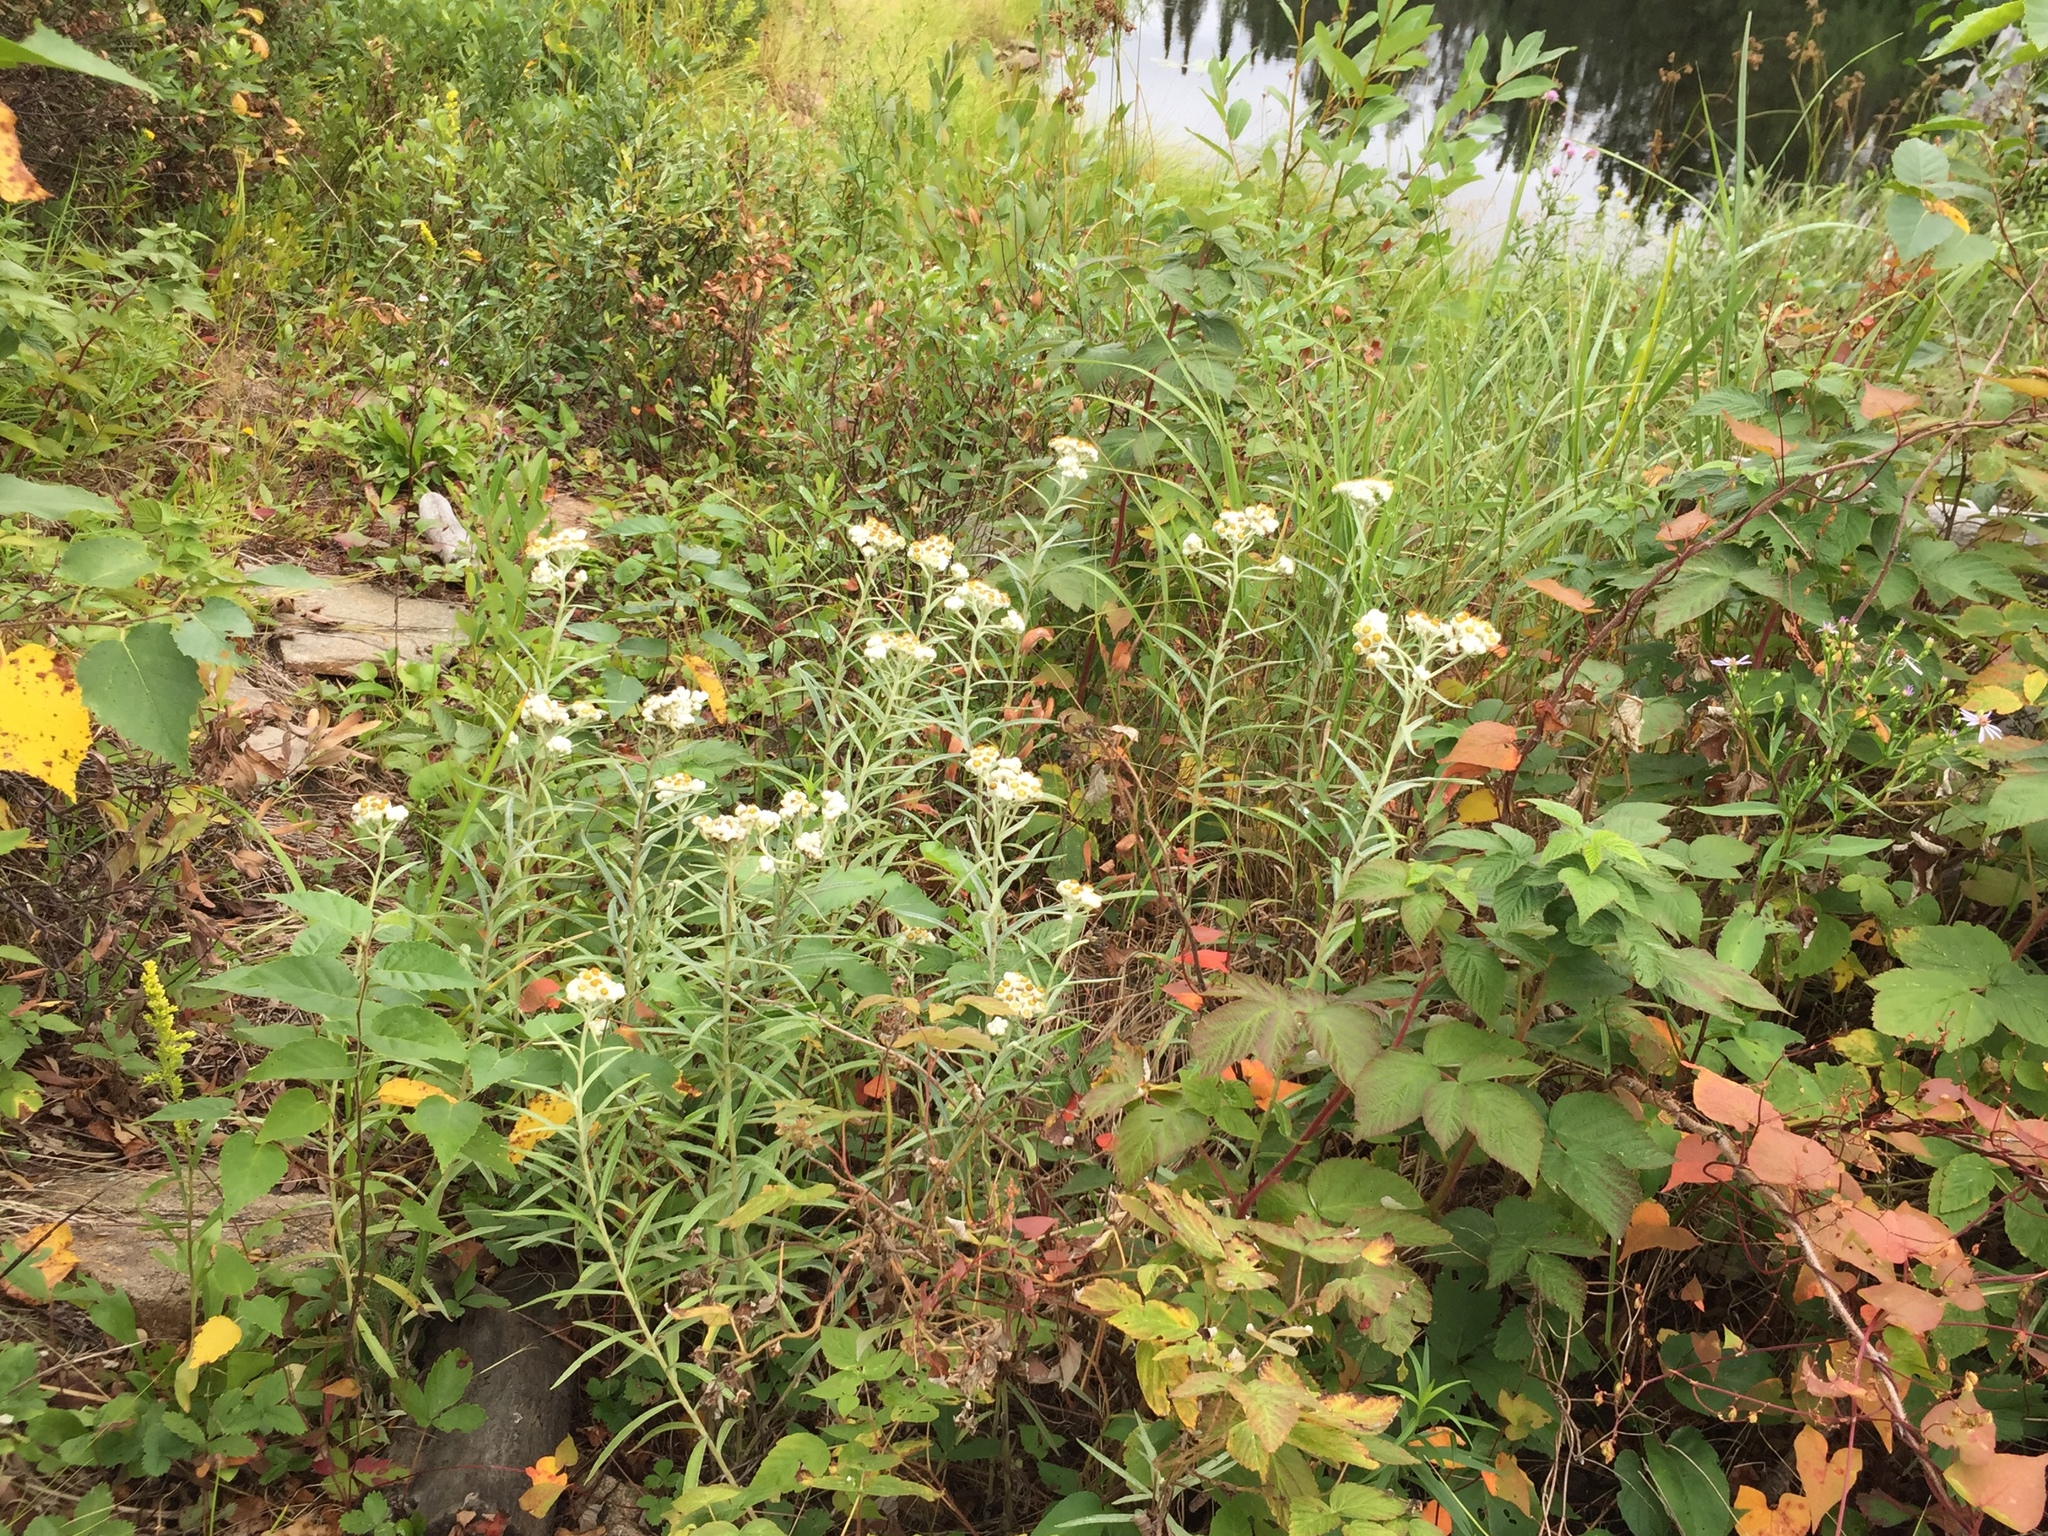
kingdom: Plantae
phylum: Tracheophyta
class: Magnoliopsida
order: Asterales
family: Asteraceae
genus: Anaphalis
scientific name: Anaphalis margaritacea
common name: Pearly everlasting
